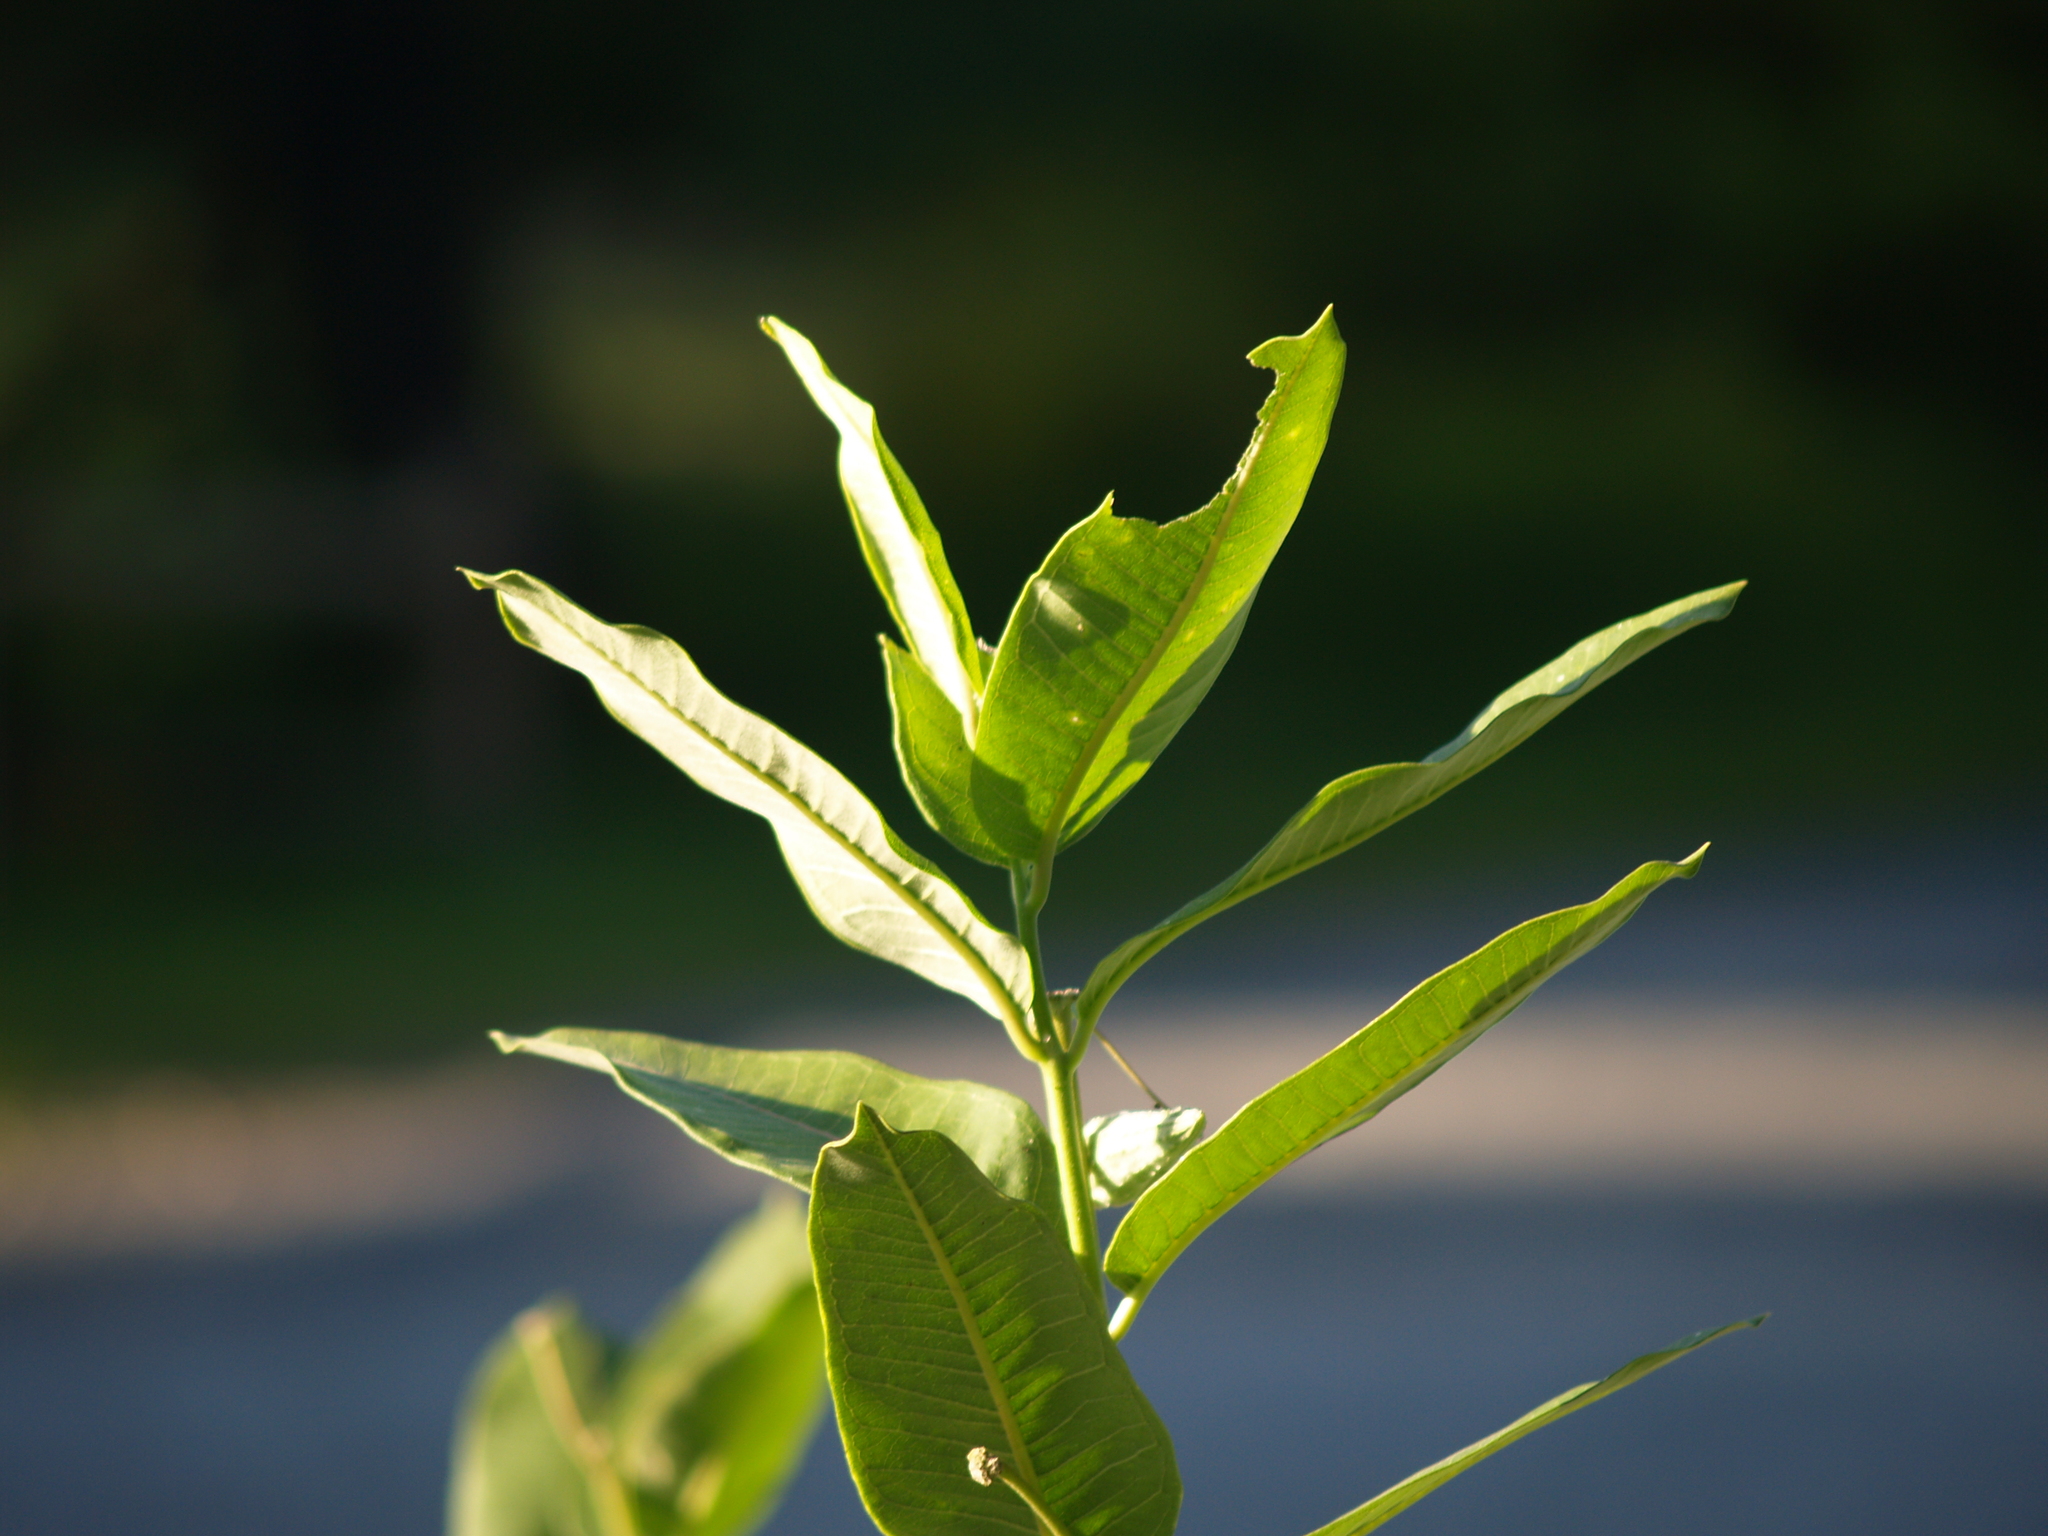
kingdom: Plantae
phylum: Tracheophyta
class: Magnoliopsida
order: Gentianales
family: Apocynaceae
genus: Asclepias
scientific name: Asclepias syriaca
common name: Common milkweed
